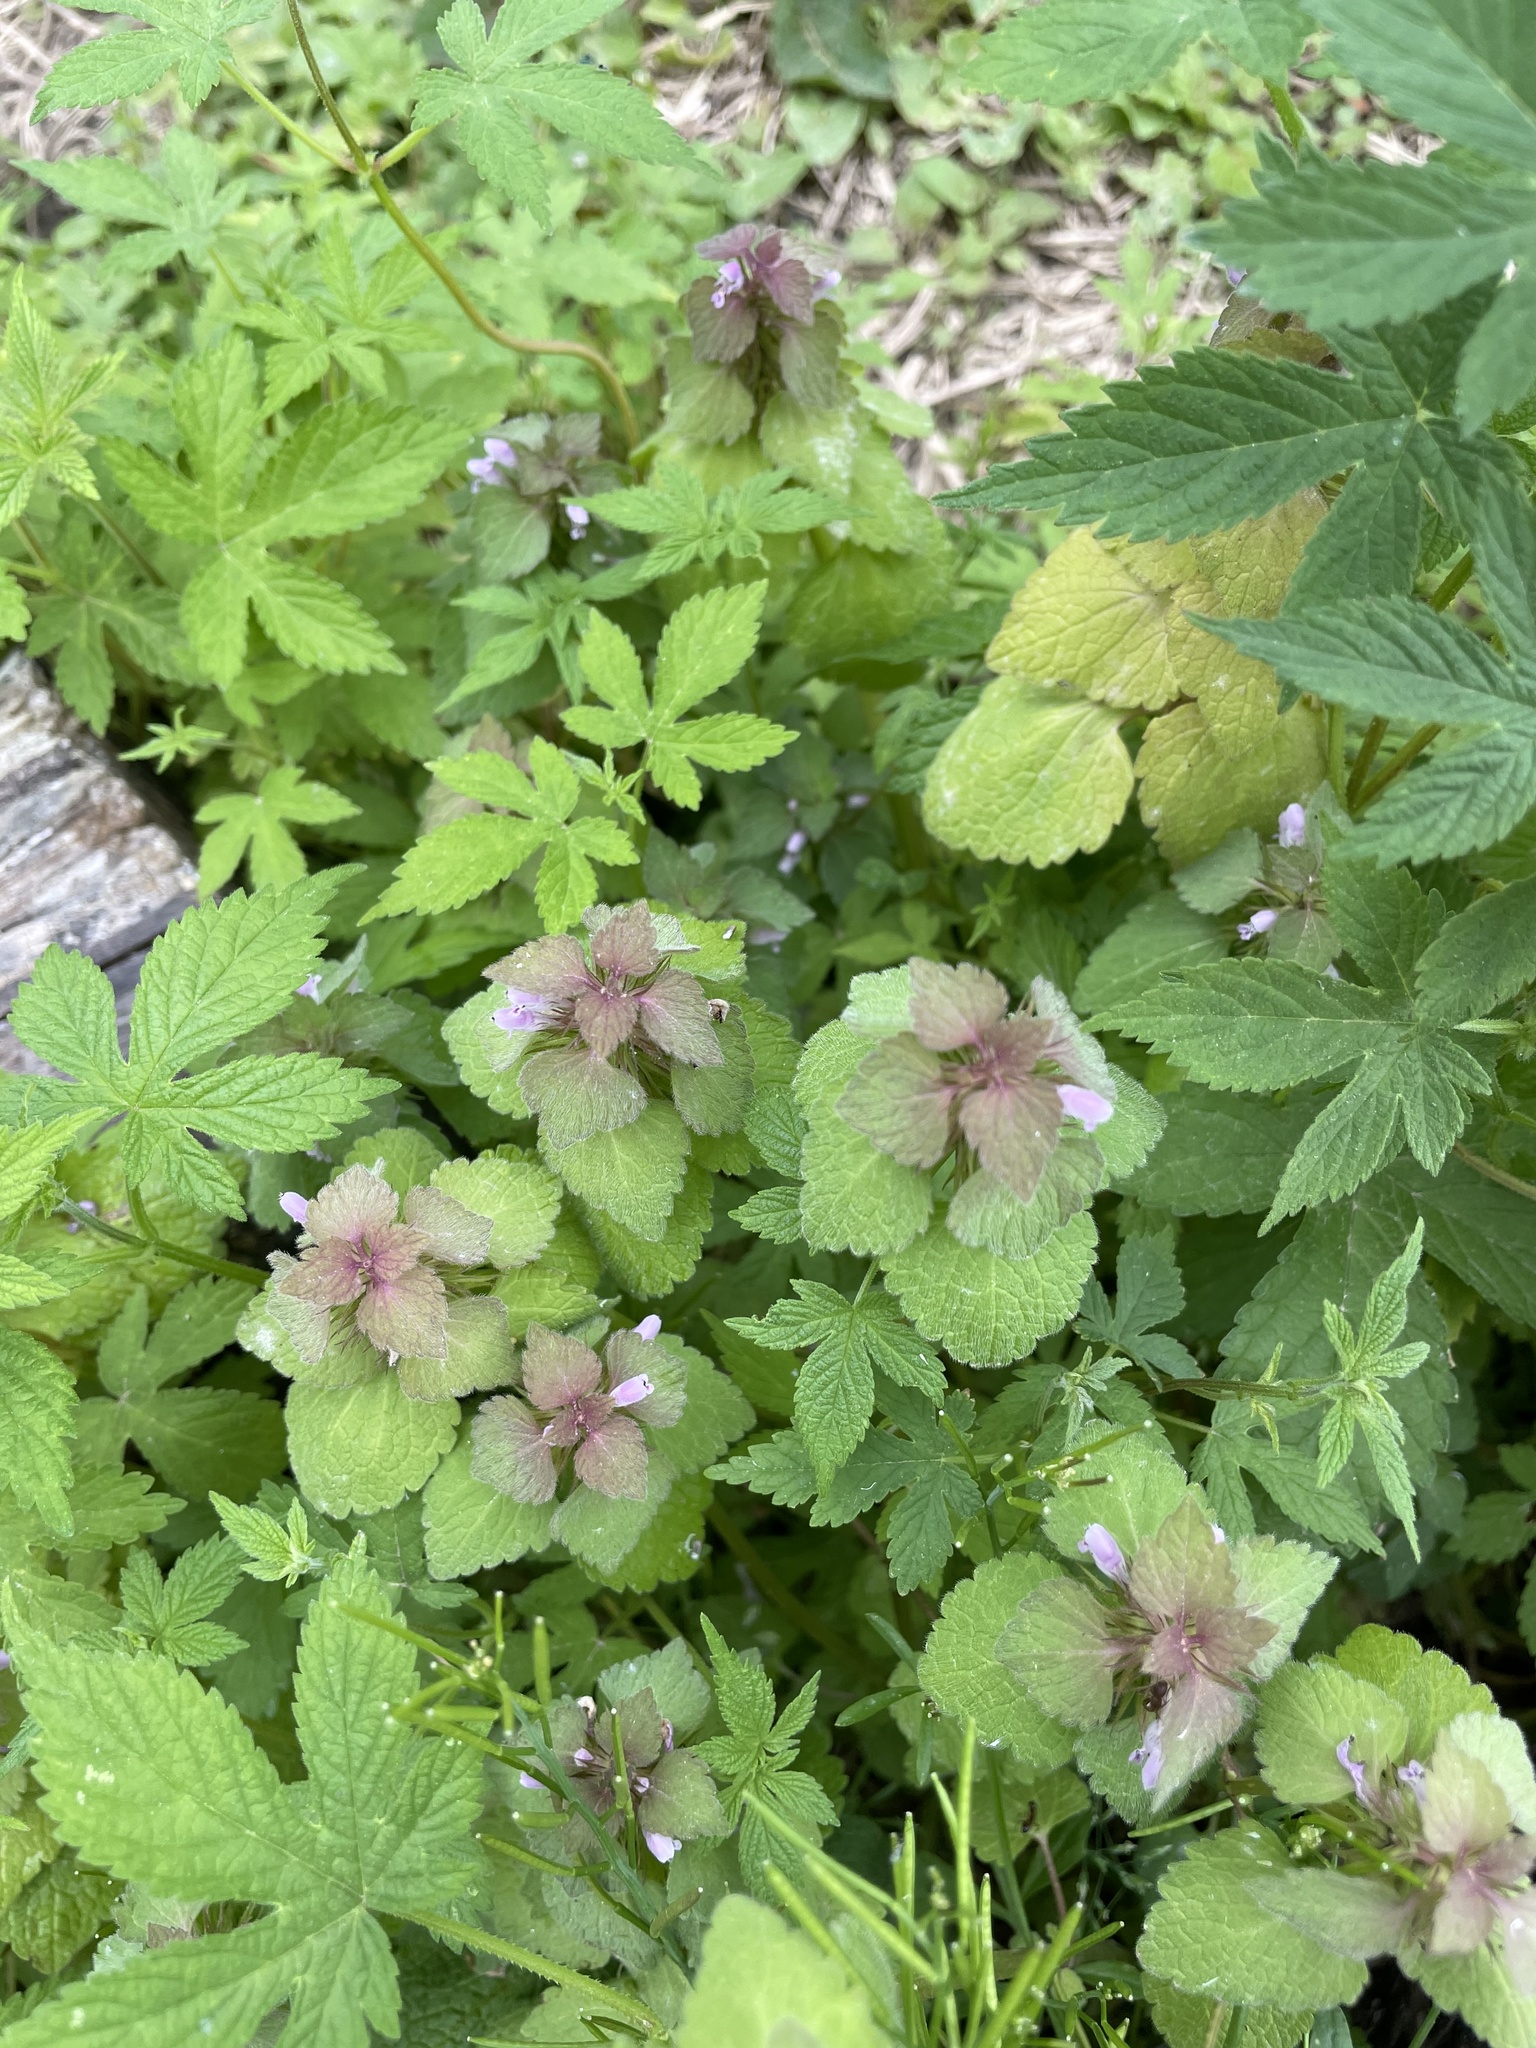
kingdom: Plantae
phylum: Tracheophyta
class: Magnoliopsida
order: Lamiales
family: Lamiaceae
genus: Lamium
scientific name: Lamium purpureum
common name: Red dead-nettle
